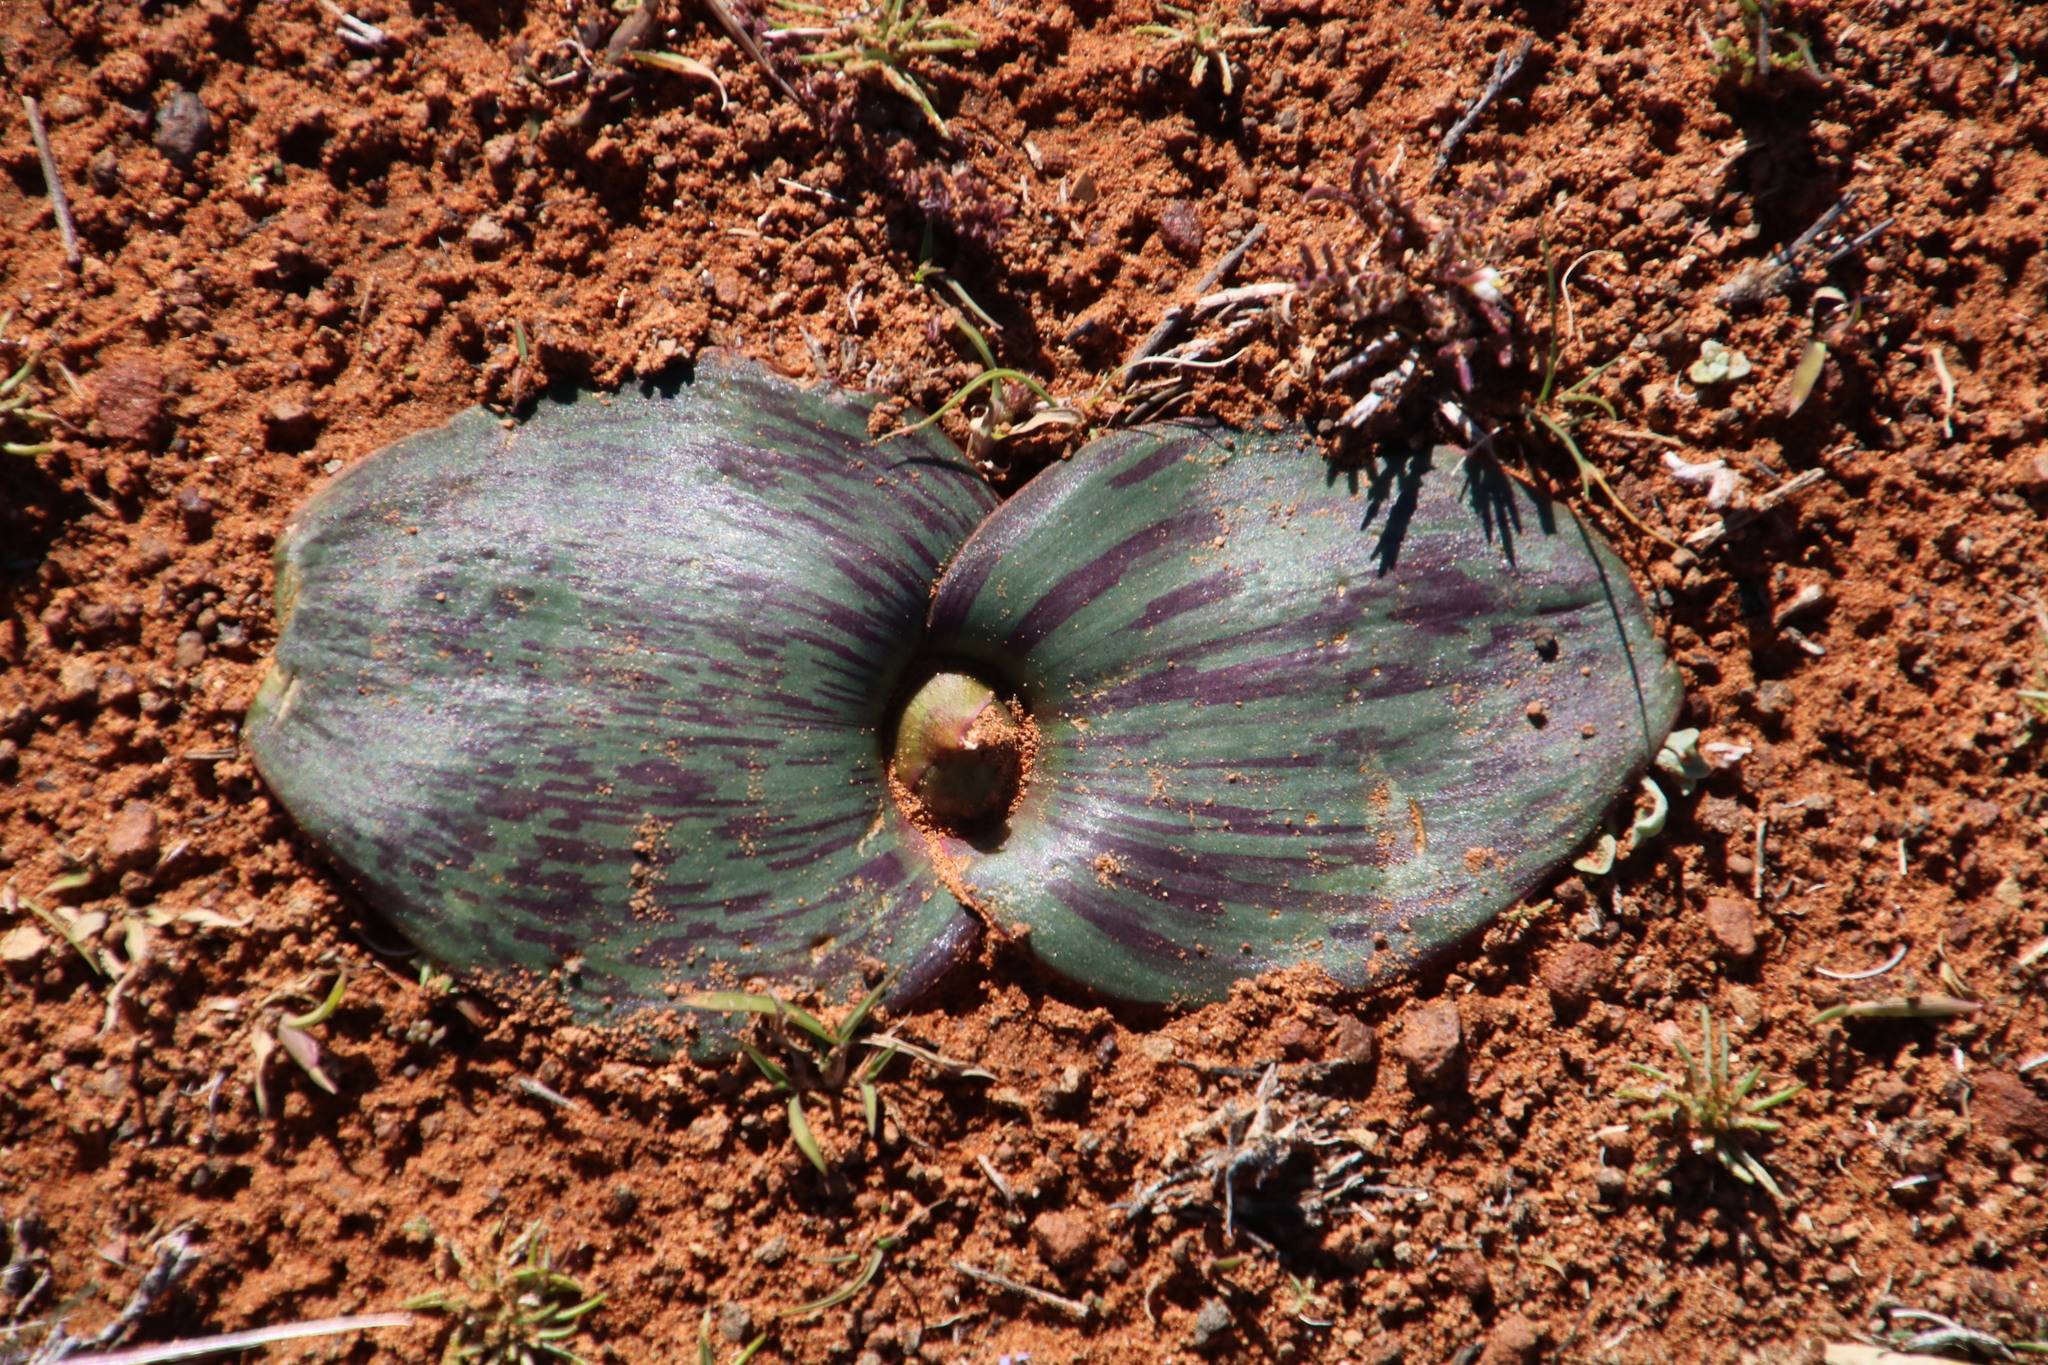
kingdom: Plantae
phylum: Tracheophyta
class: Liliopsida
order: Asparagales
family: Asparagaceae
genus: Massonia
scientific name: Massonia depressa
